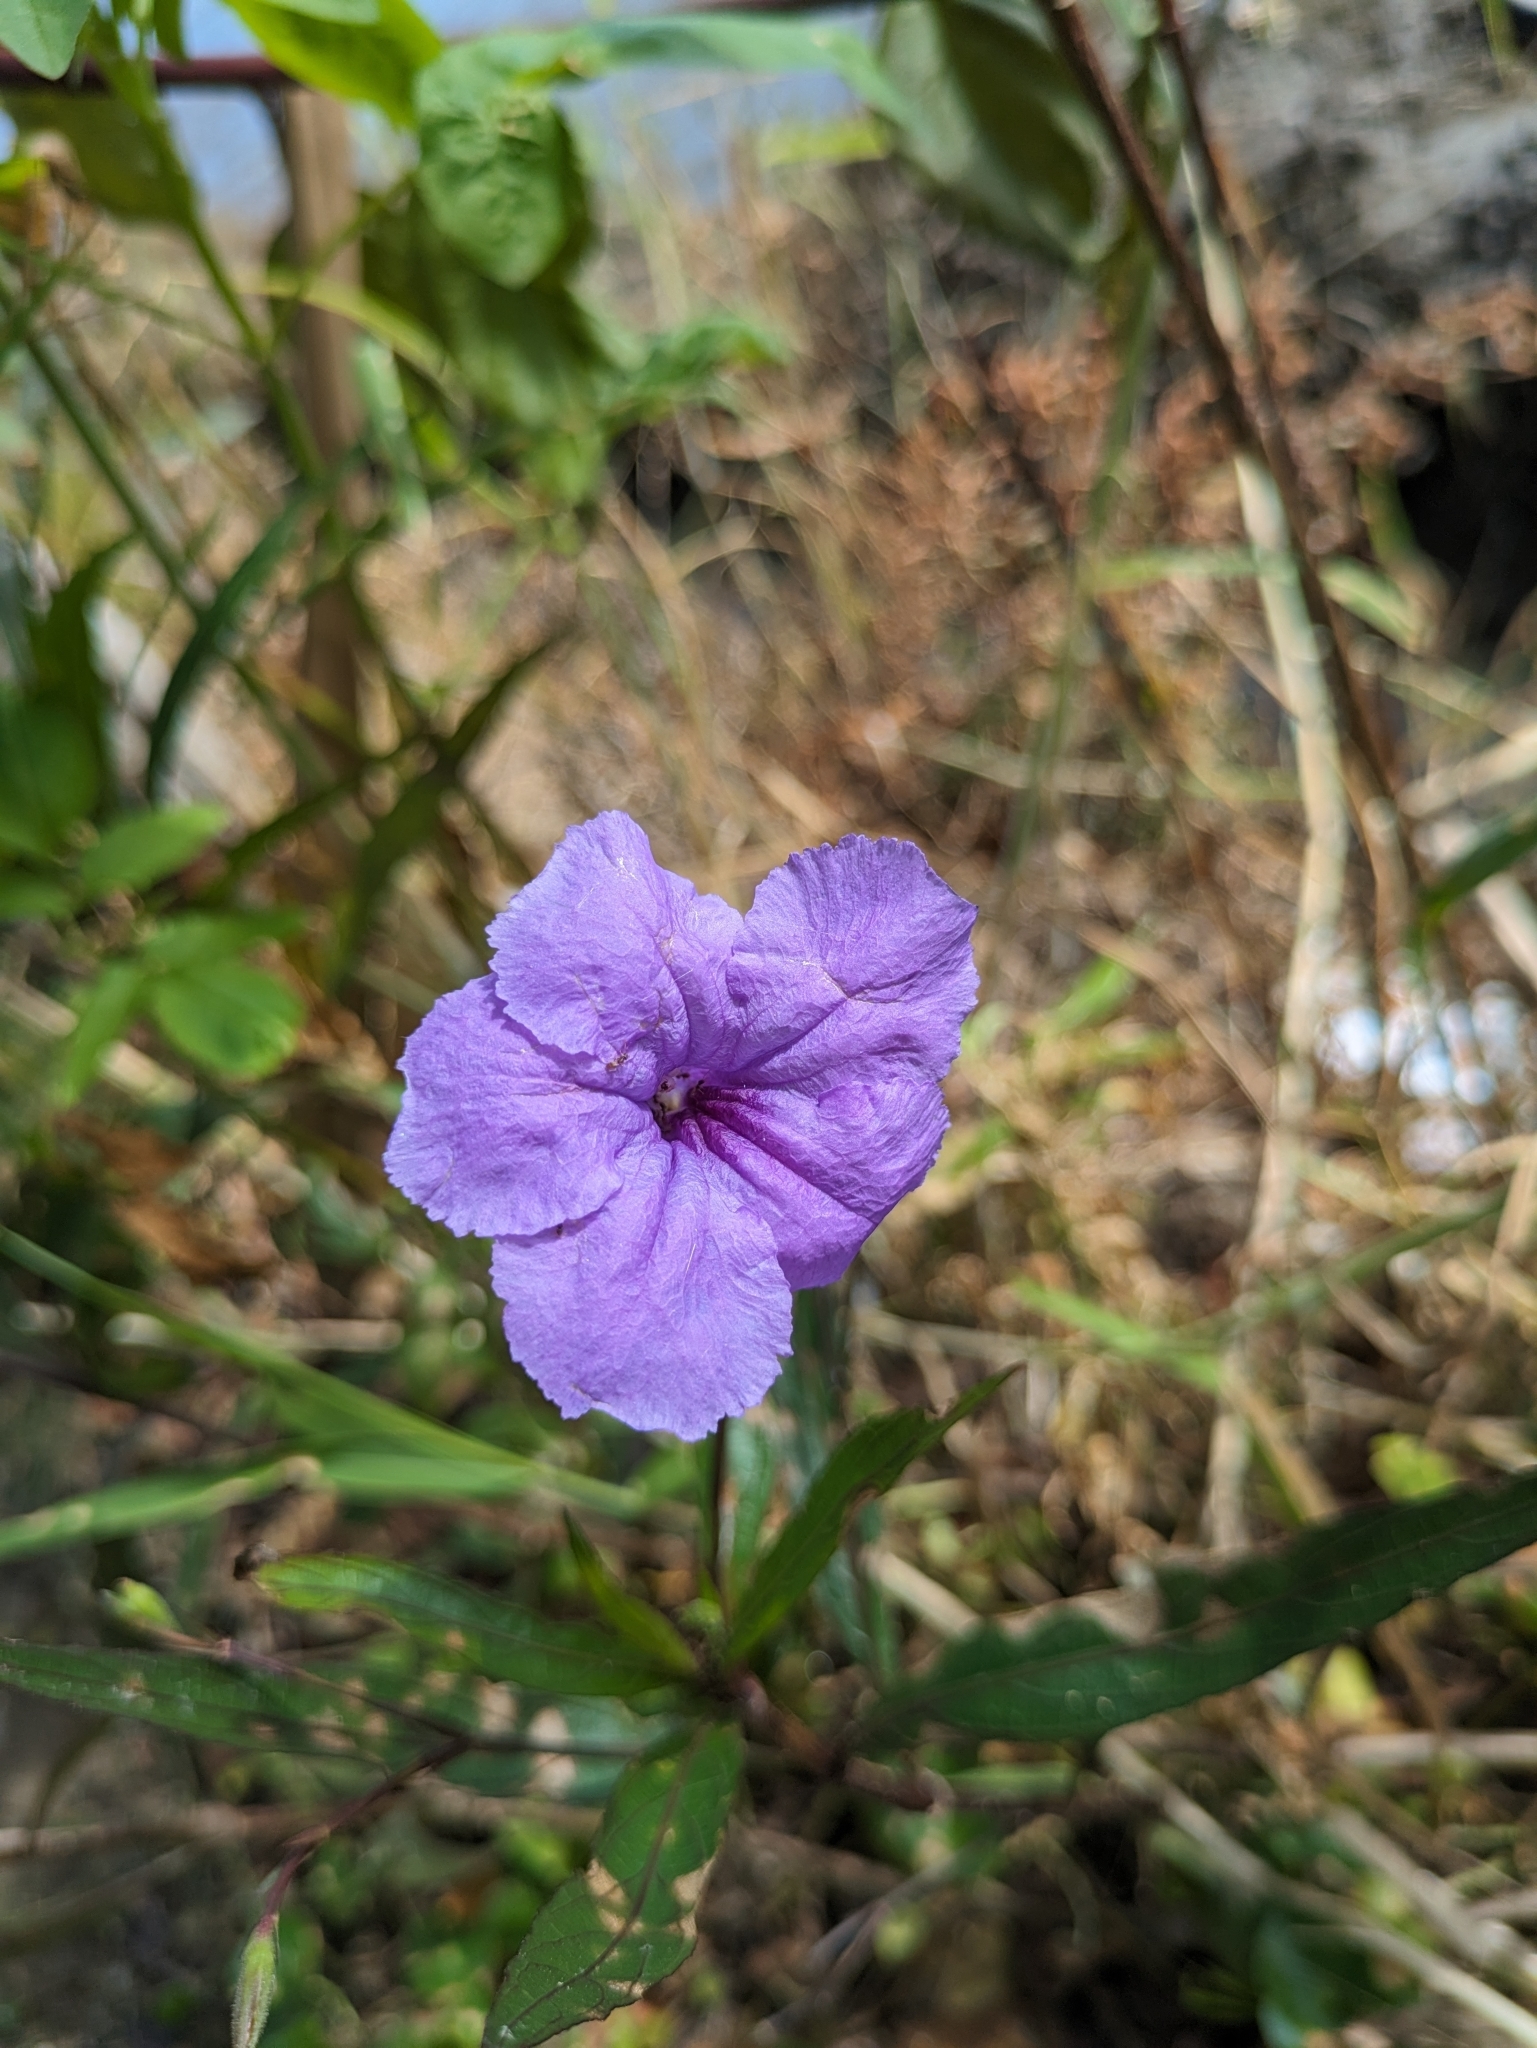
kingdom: Plantae
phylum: Tracheophyta
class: Magnoliopsida
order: Lamiales
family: Acanthaceae
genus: Ruellia
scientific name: Ruellia simplex
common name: Softseed wild petunia
